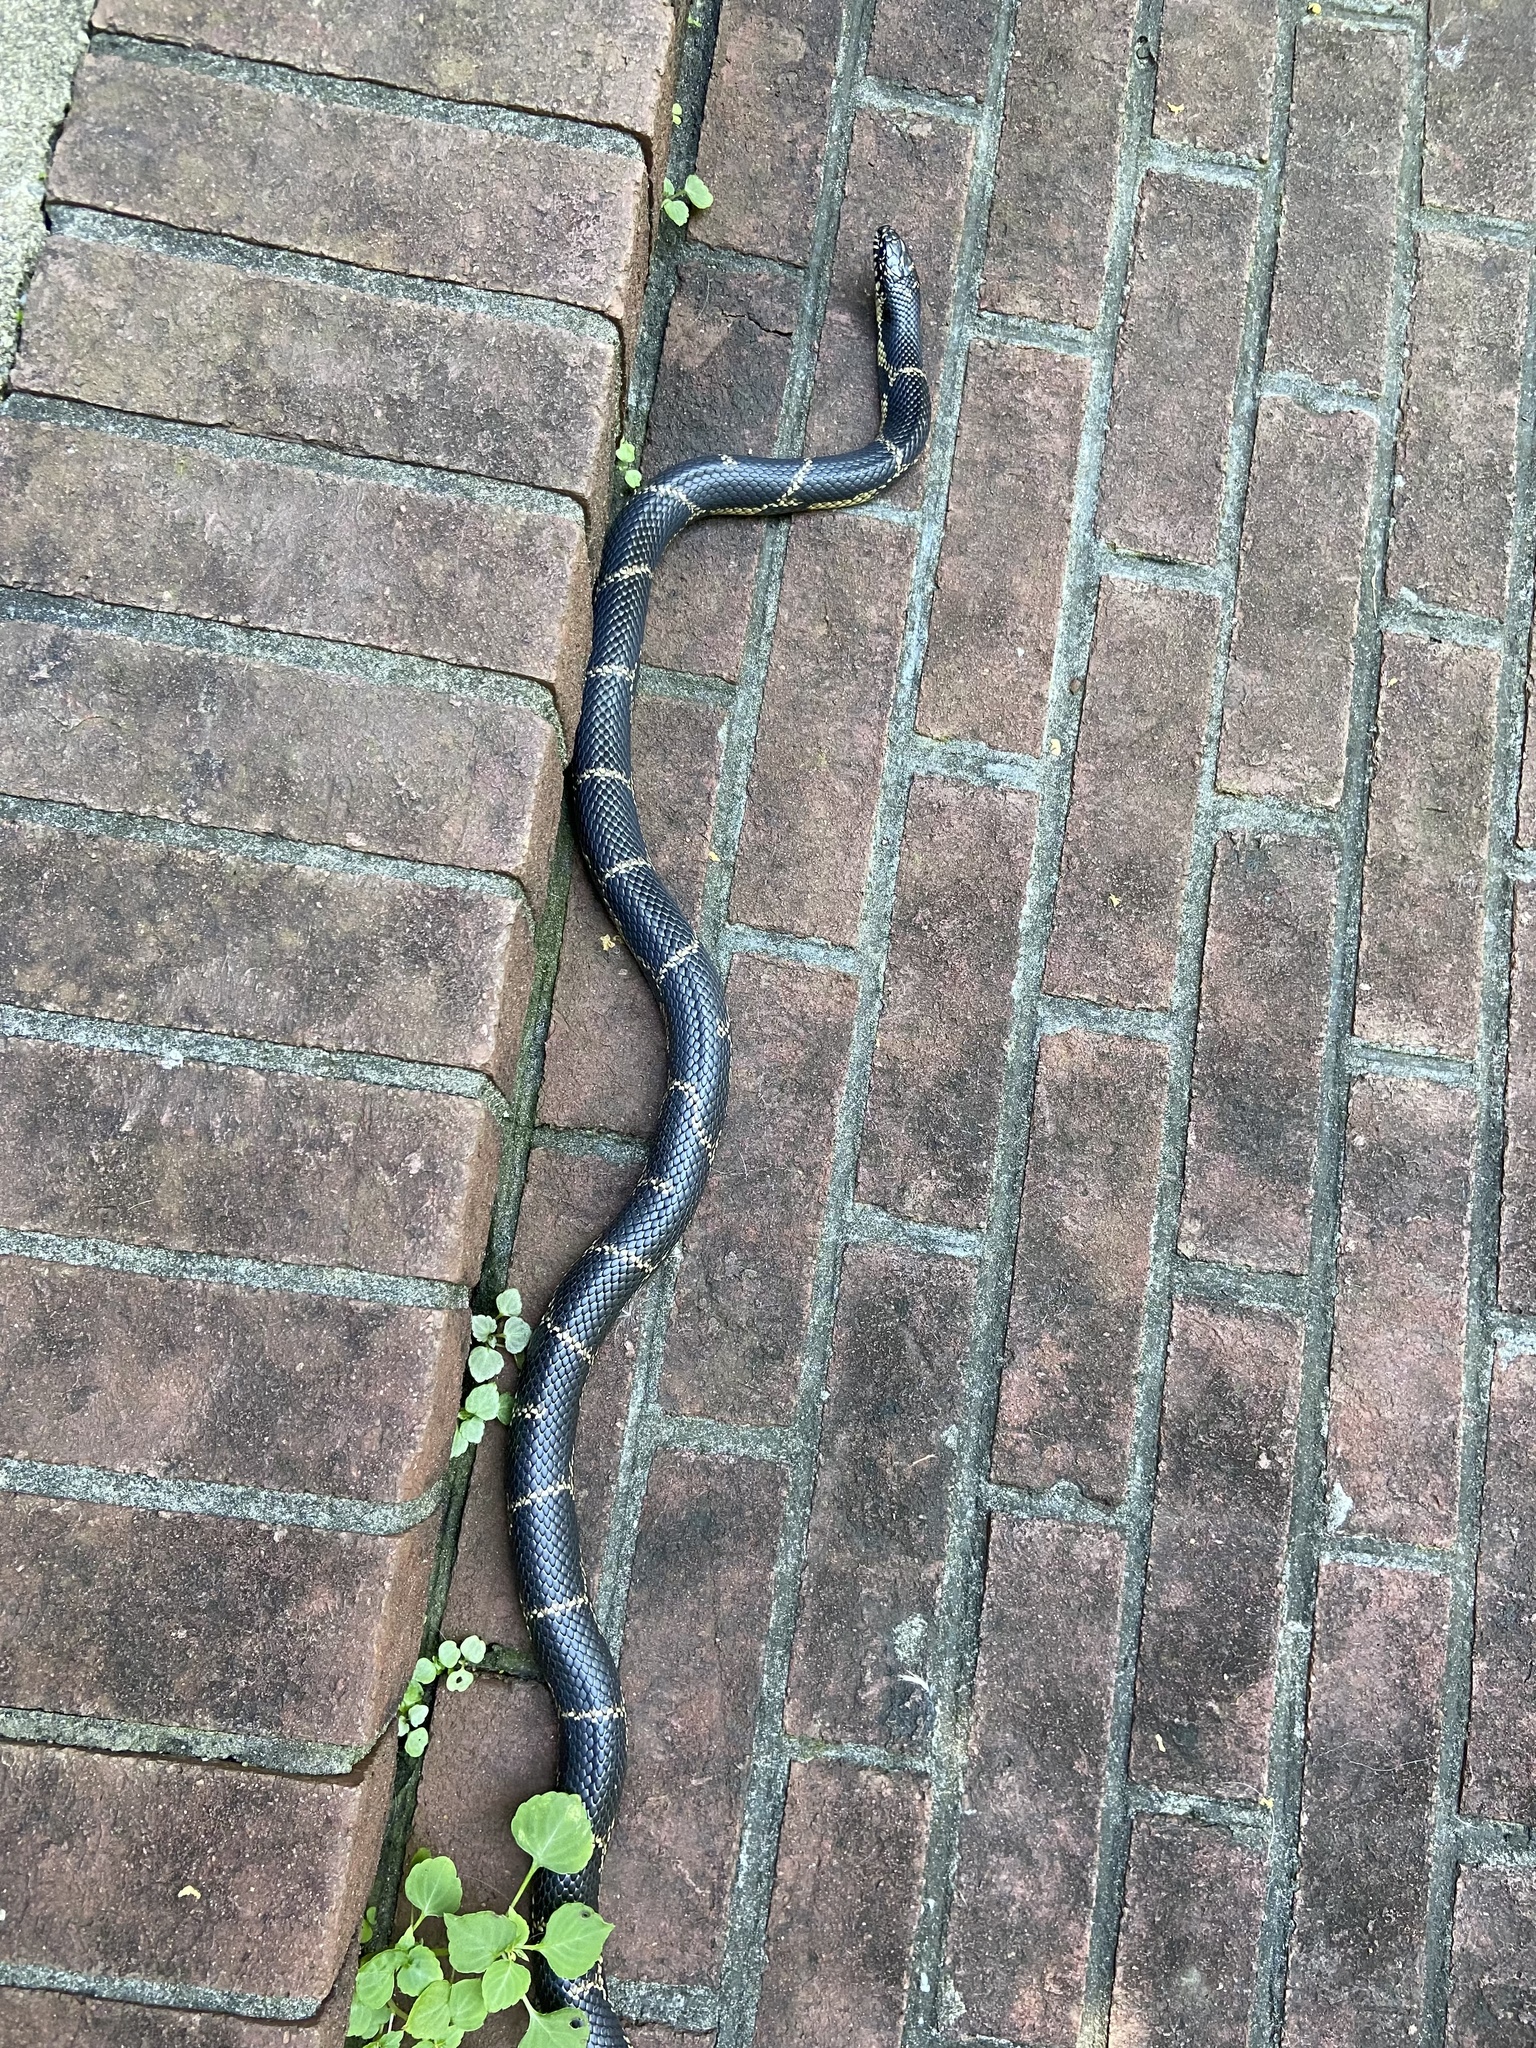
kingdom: Animalia
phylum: Chordata
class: Squamata
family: Colubridae
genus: Lampropeltis
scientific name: Lampropeltis getula
